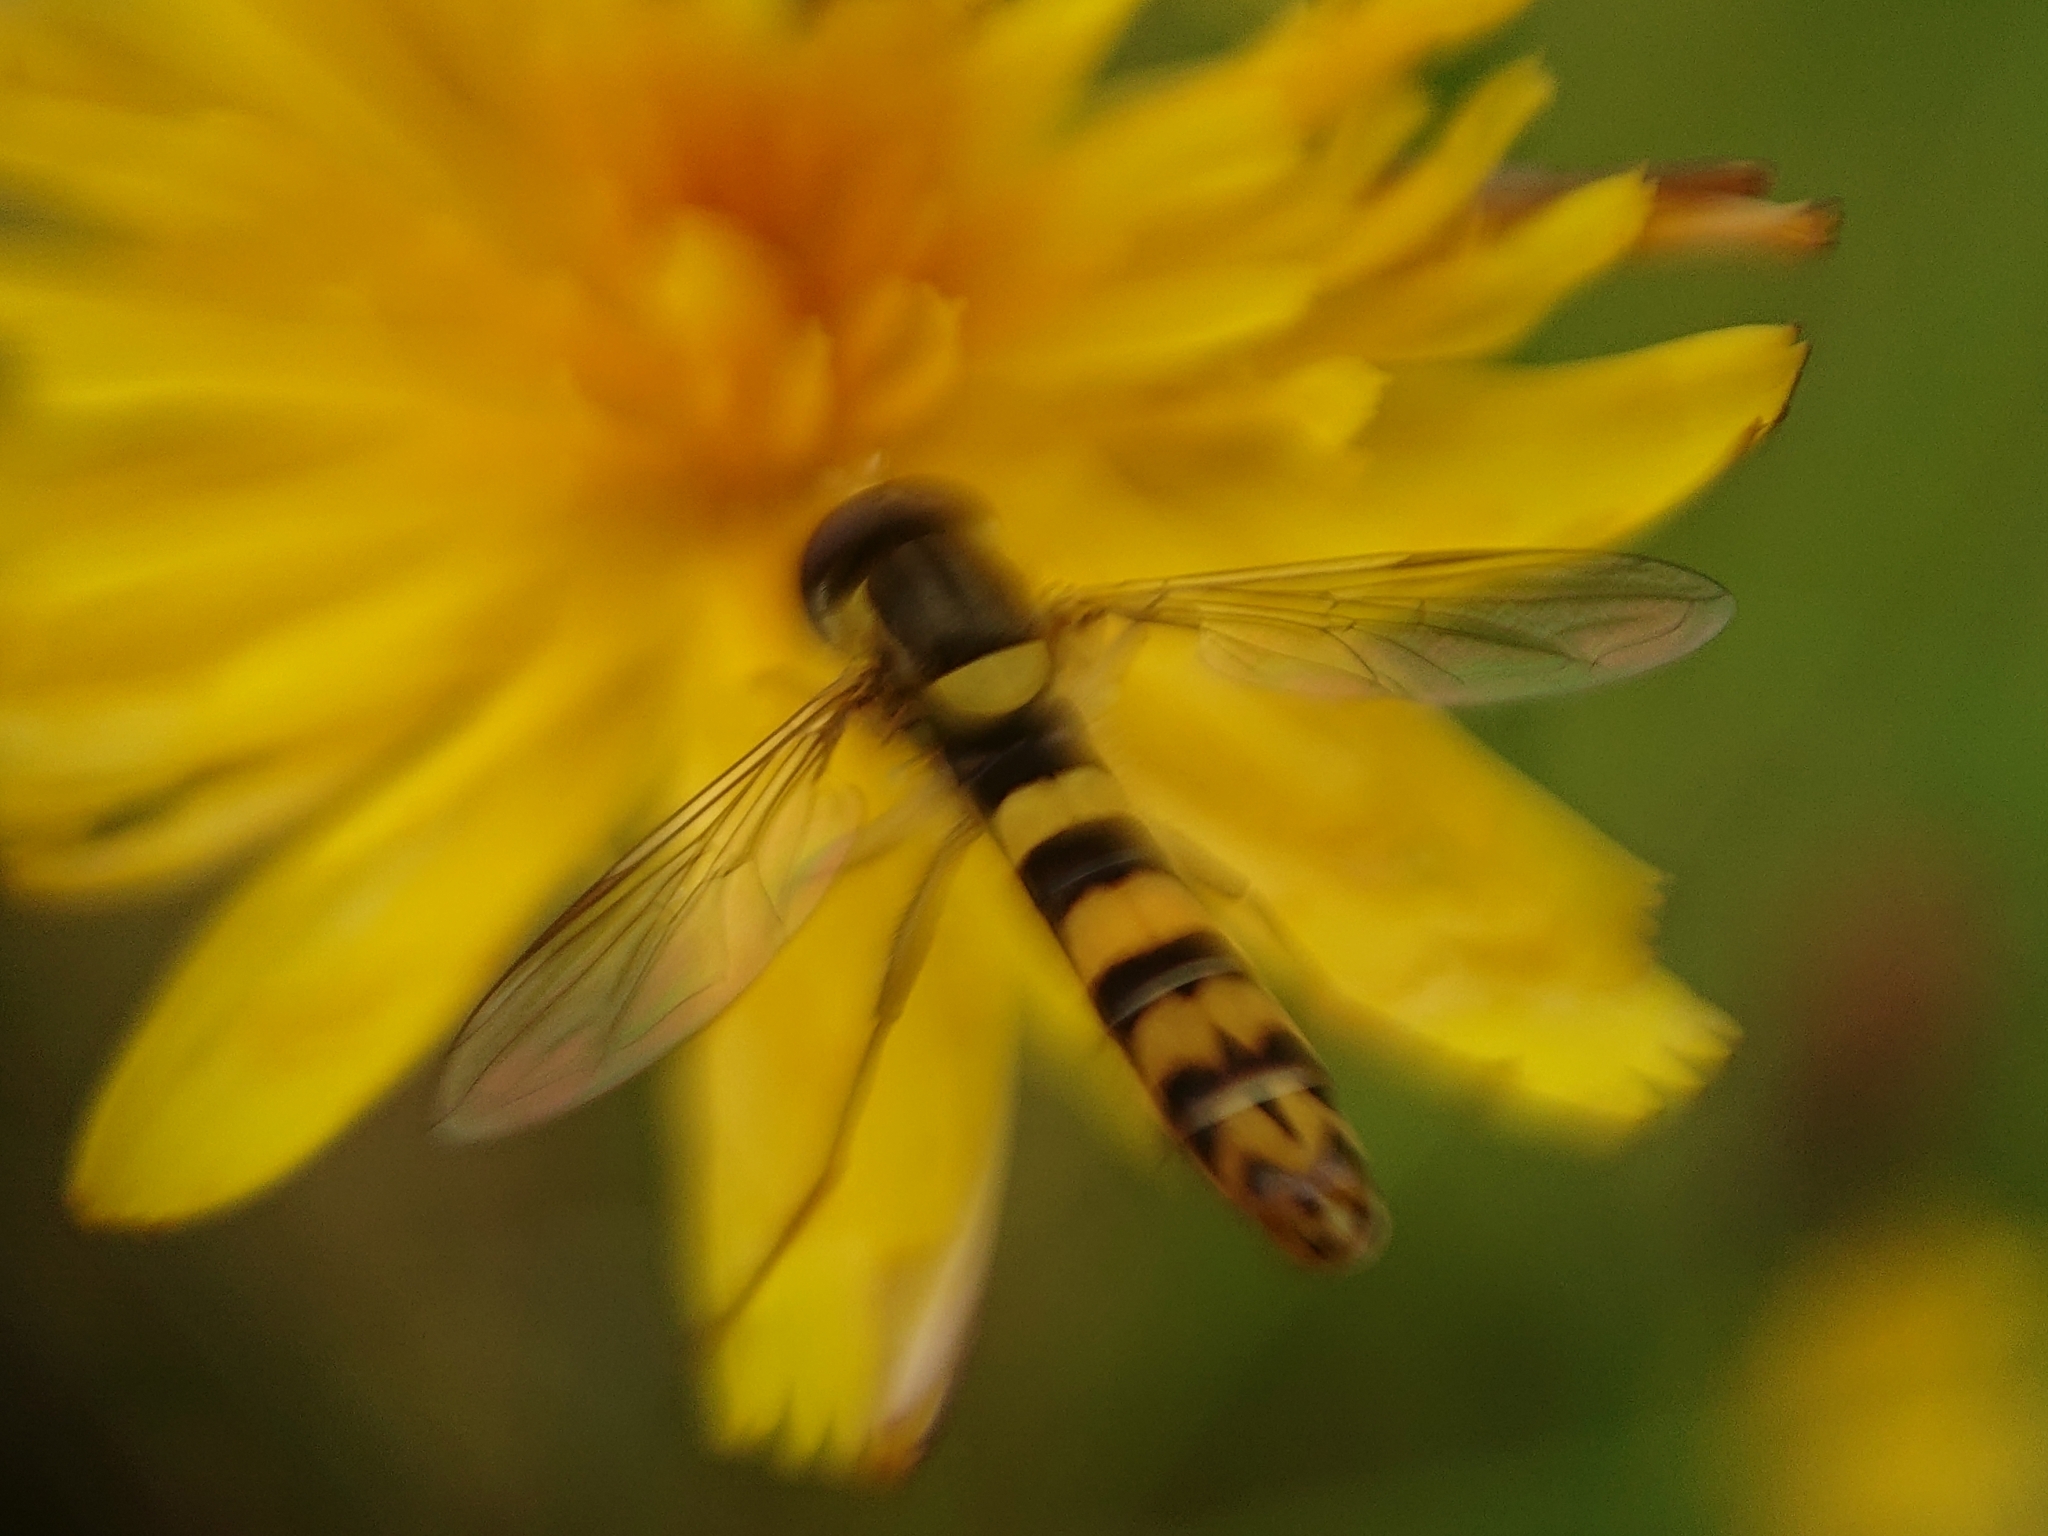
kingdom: Animalia
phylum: Arthropoda
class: Insecta
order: Diptera
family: Syrphidae
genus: Sphaerophoria
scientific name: Sphaerophoria scripta
